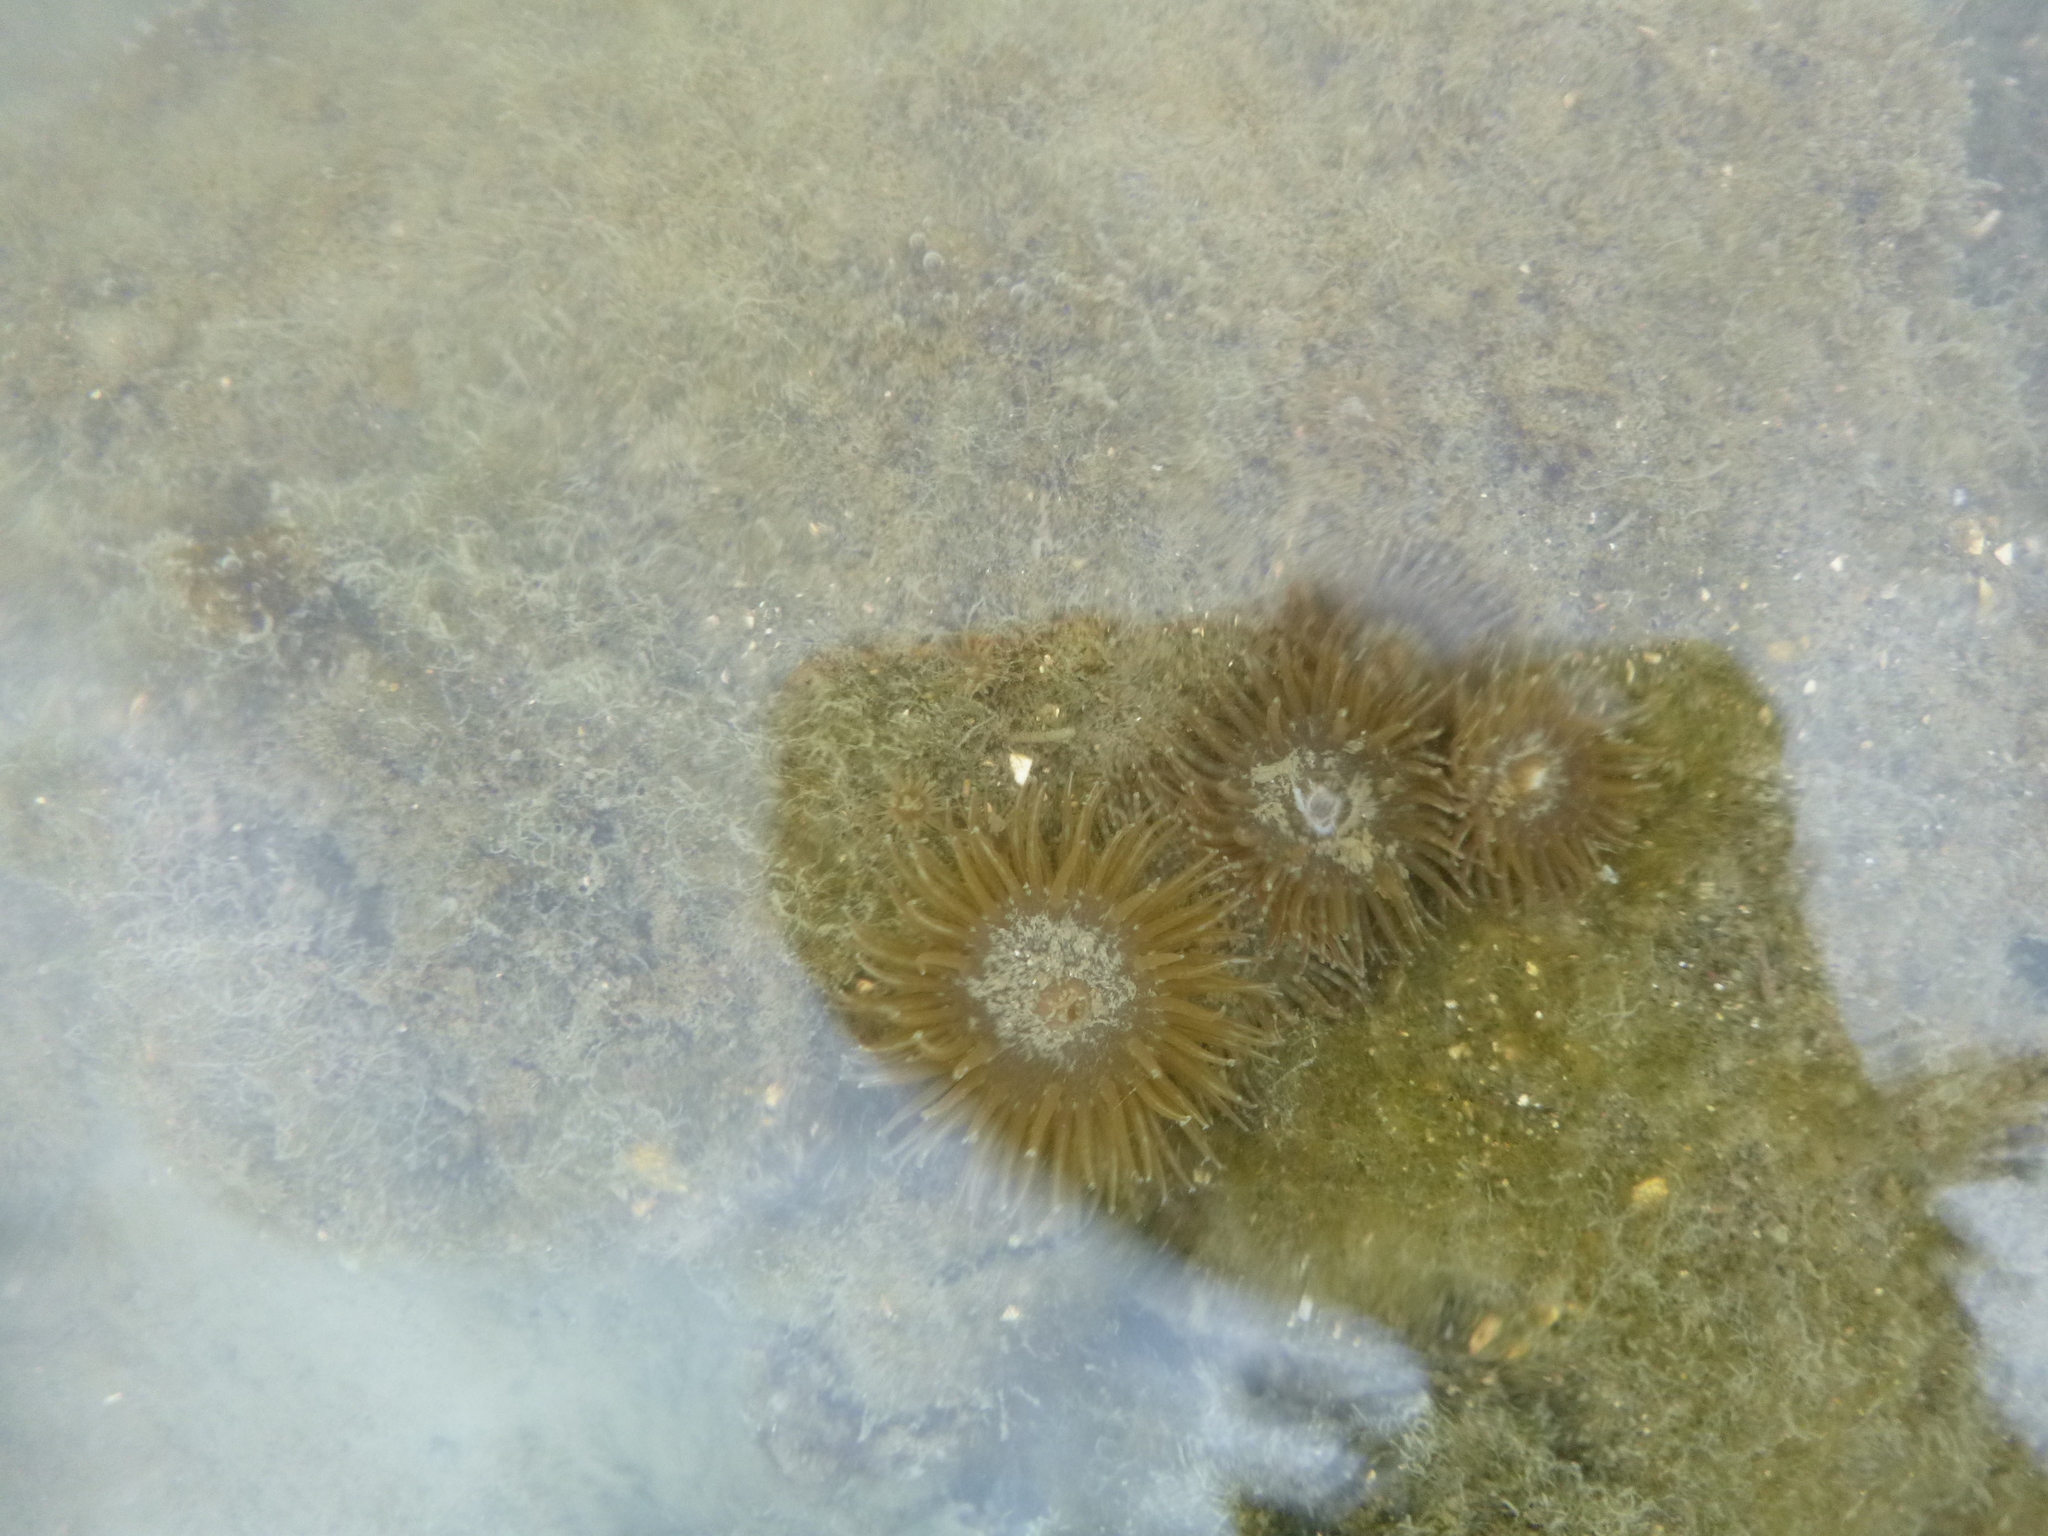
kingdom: Animalia
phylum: Cnidaria
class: Anthozoa
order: Actiniaria
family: Actiniidae
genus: Anthopleura
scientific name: Anthopleura hermaphroditica
